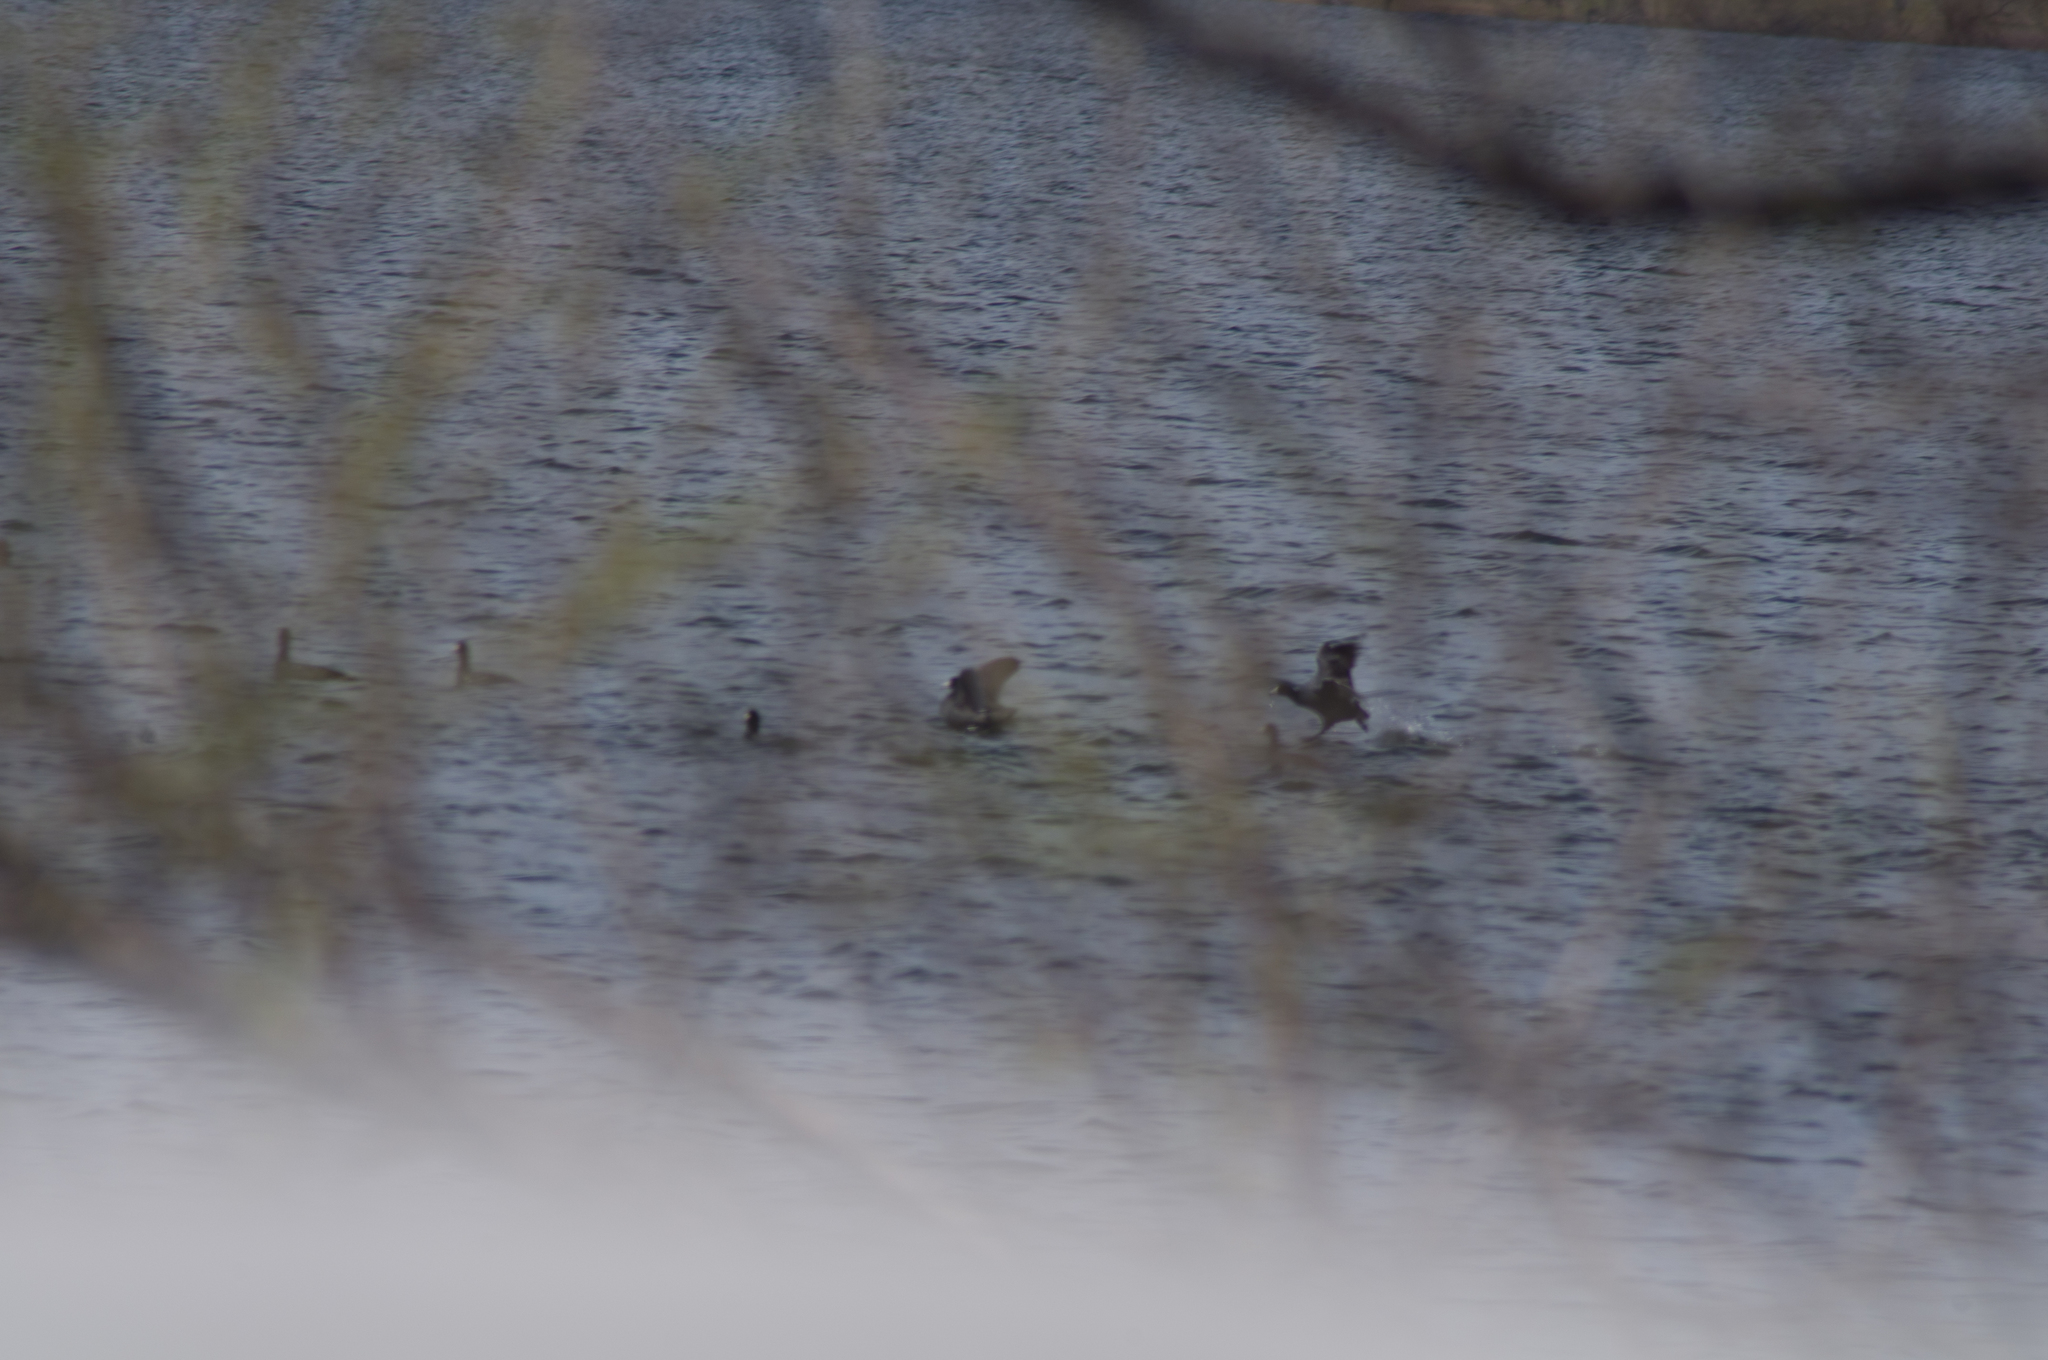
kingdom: Animalia
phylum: Chordata
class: Aves
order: Gruiformes
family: Rallidae
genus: Fulica
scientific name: Fulica americana
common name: American coot
